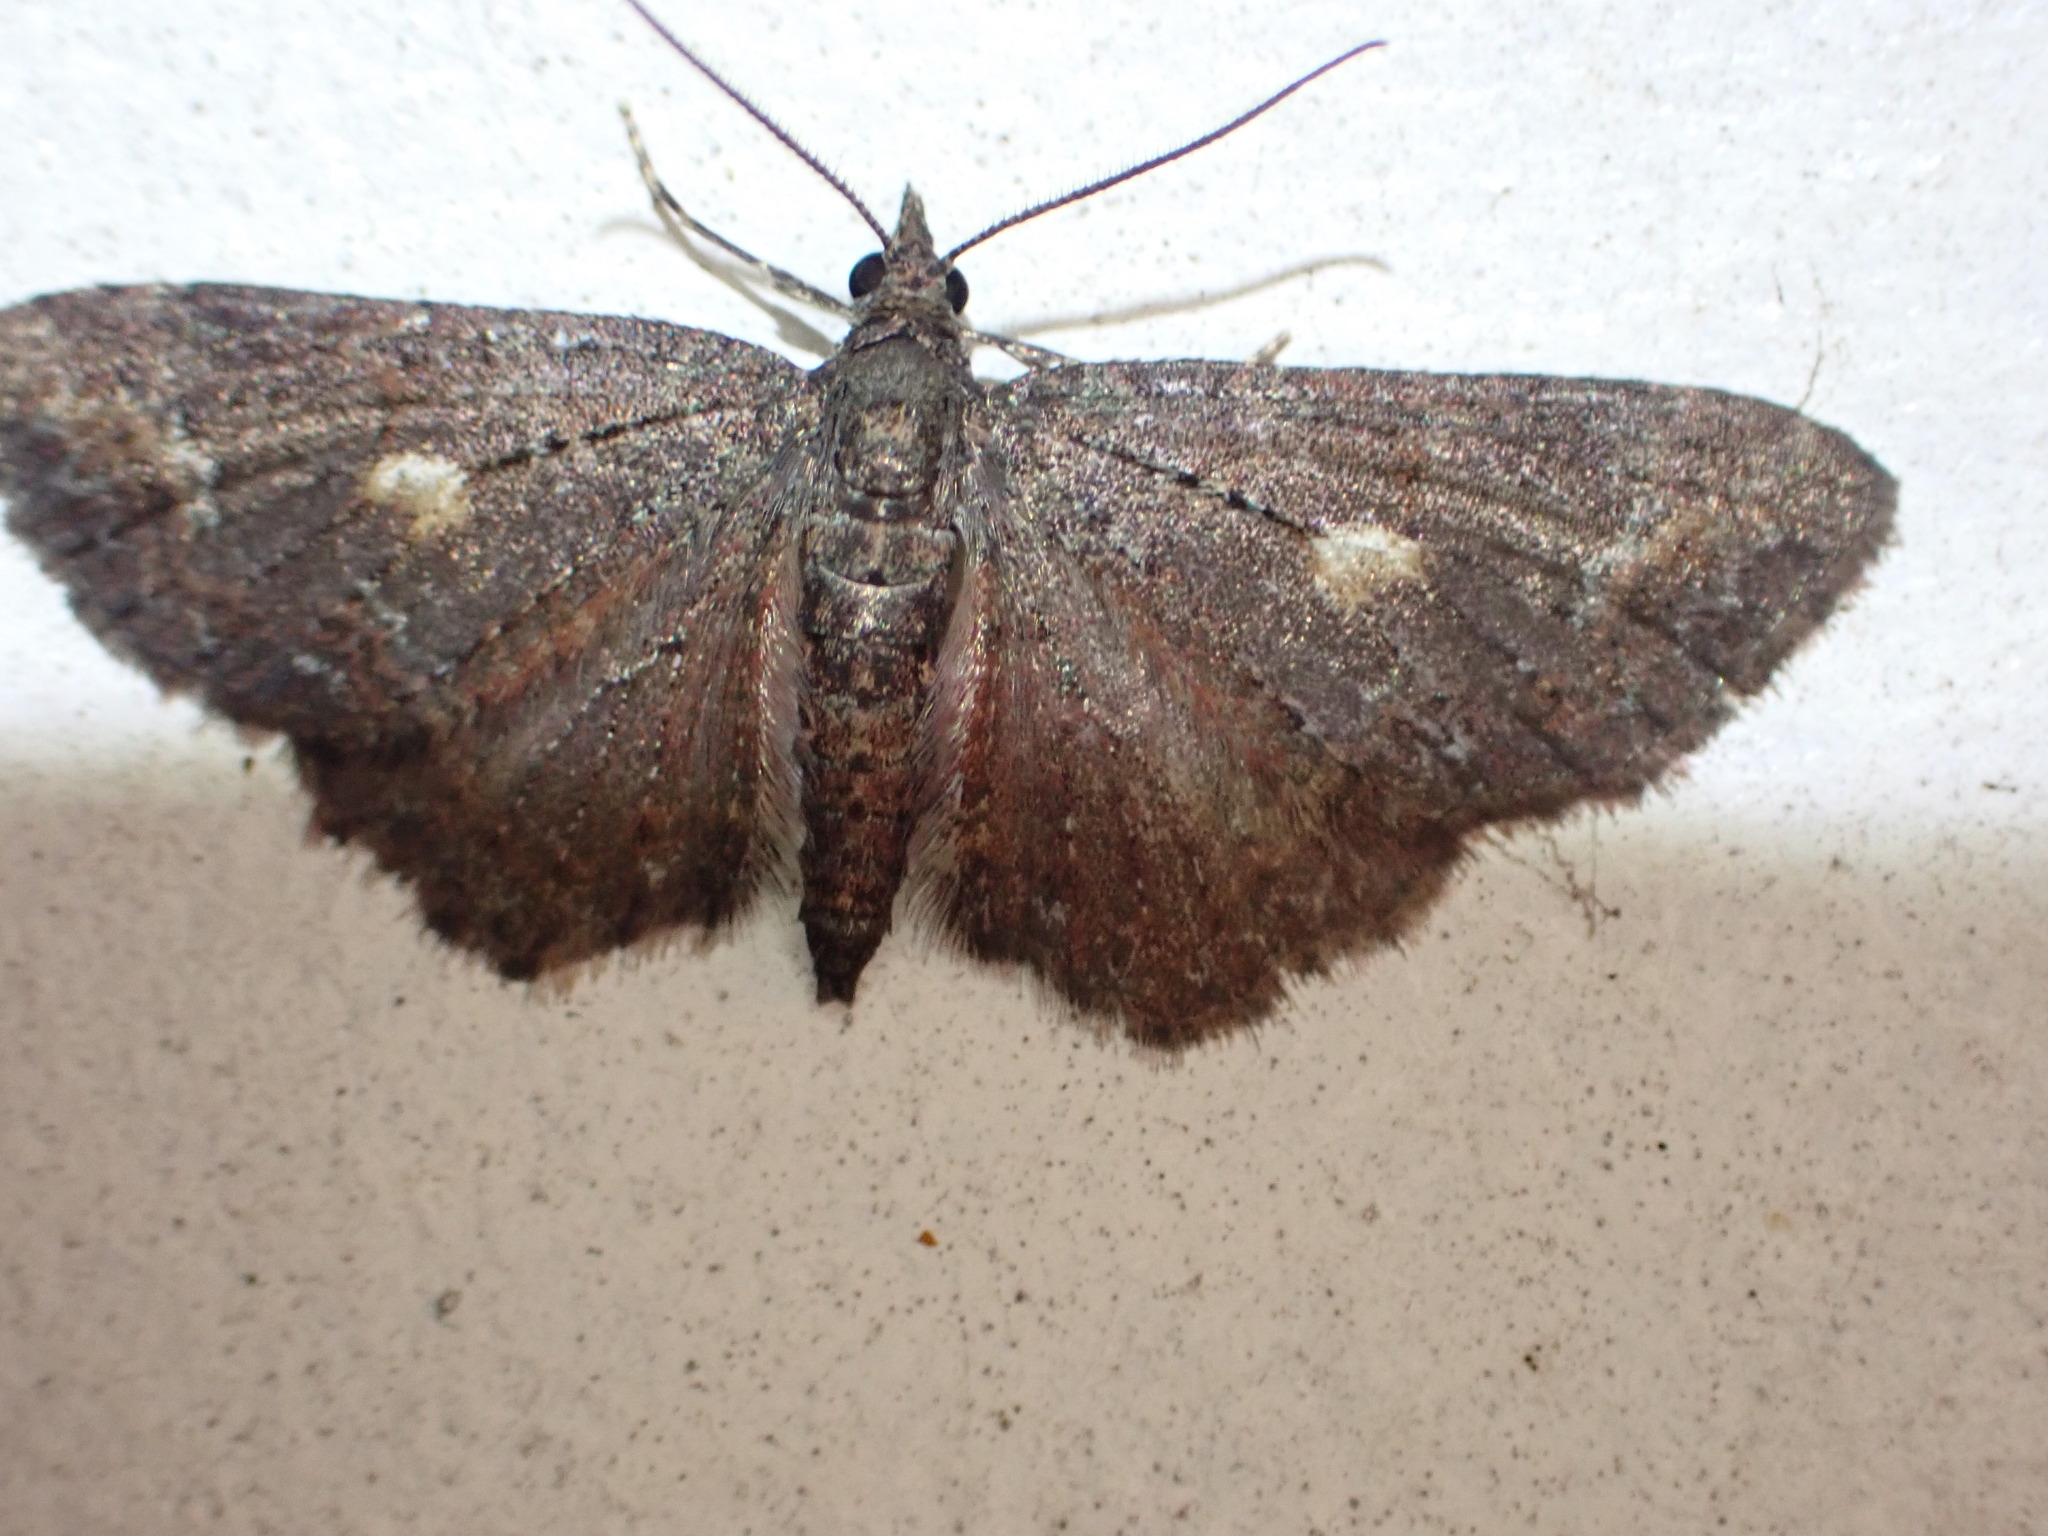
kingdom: Animalia
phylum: Arthropoda
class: Insecta
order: Lepidoptera
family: Geometridae
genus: Pasiphila
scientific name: Pasiphila lunata
